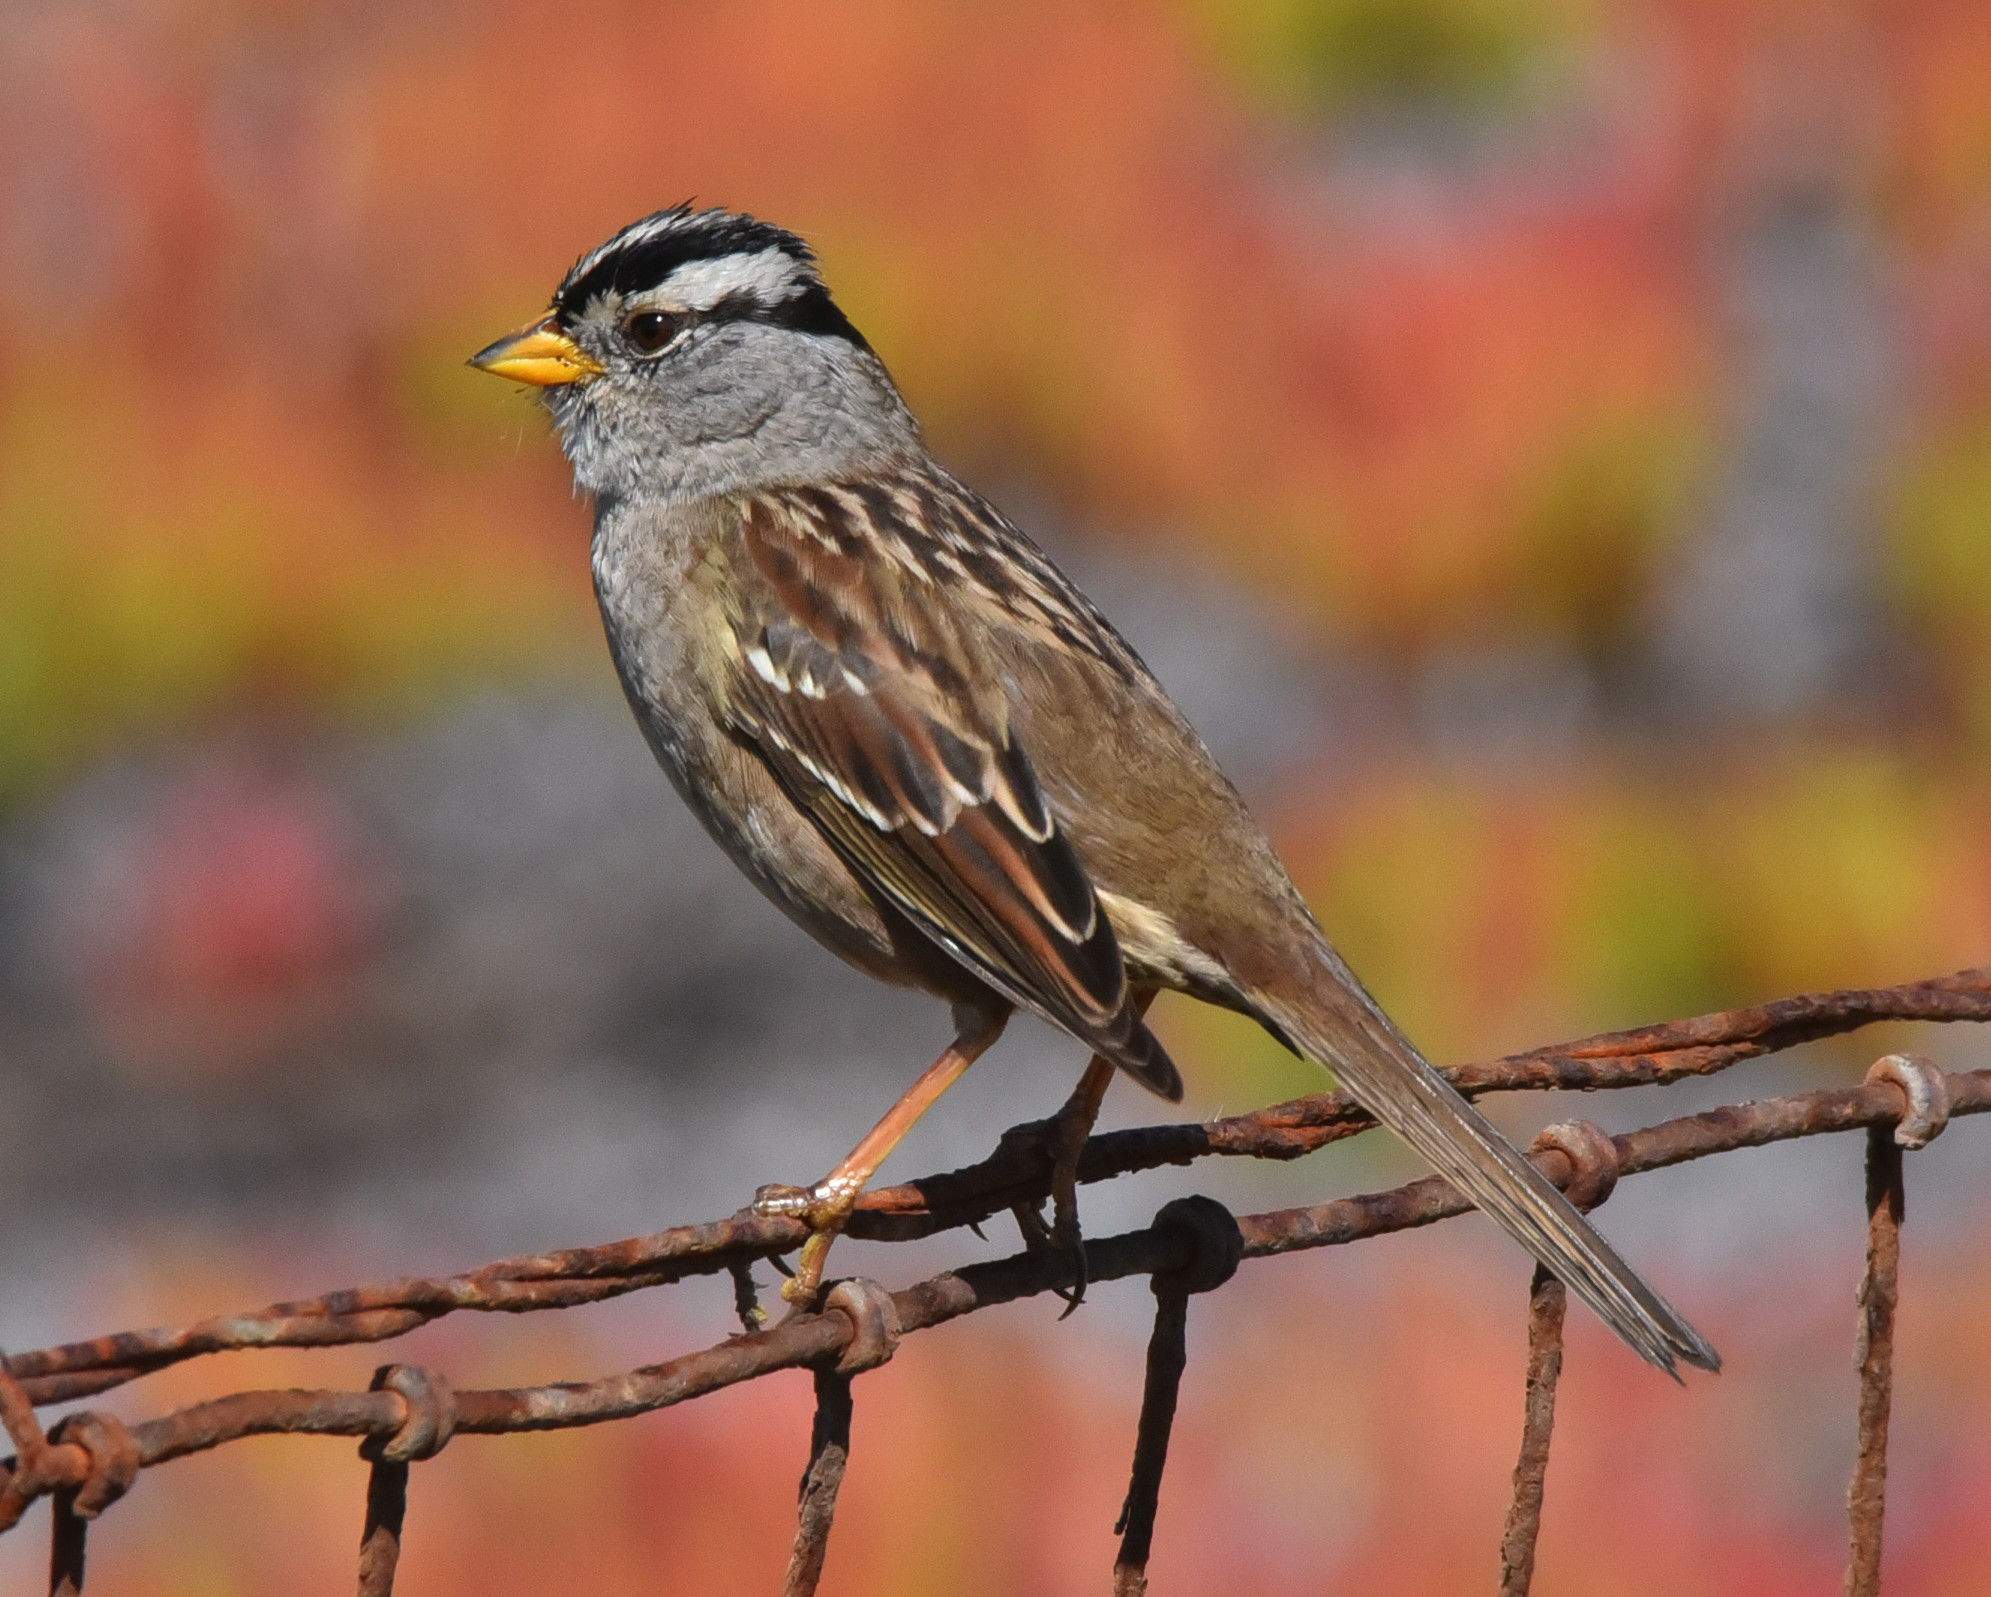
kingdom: Animalia
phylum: Chordata
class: Aves
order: Passeriformes
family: Passerellidae
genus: Zonotrichia
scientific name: Zonotrichia leucophrys
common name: White-crowned sparrow
